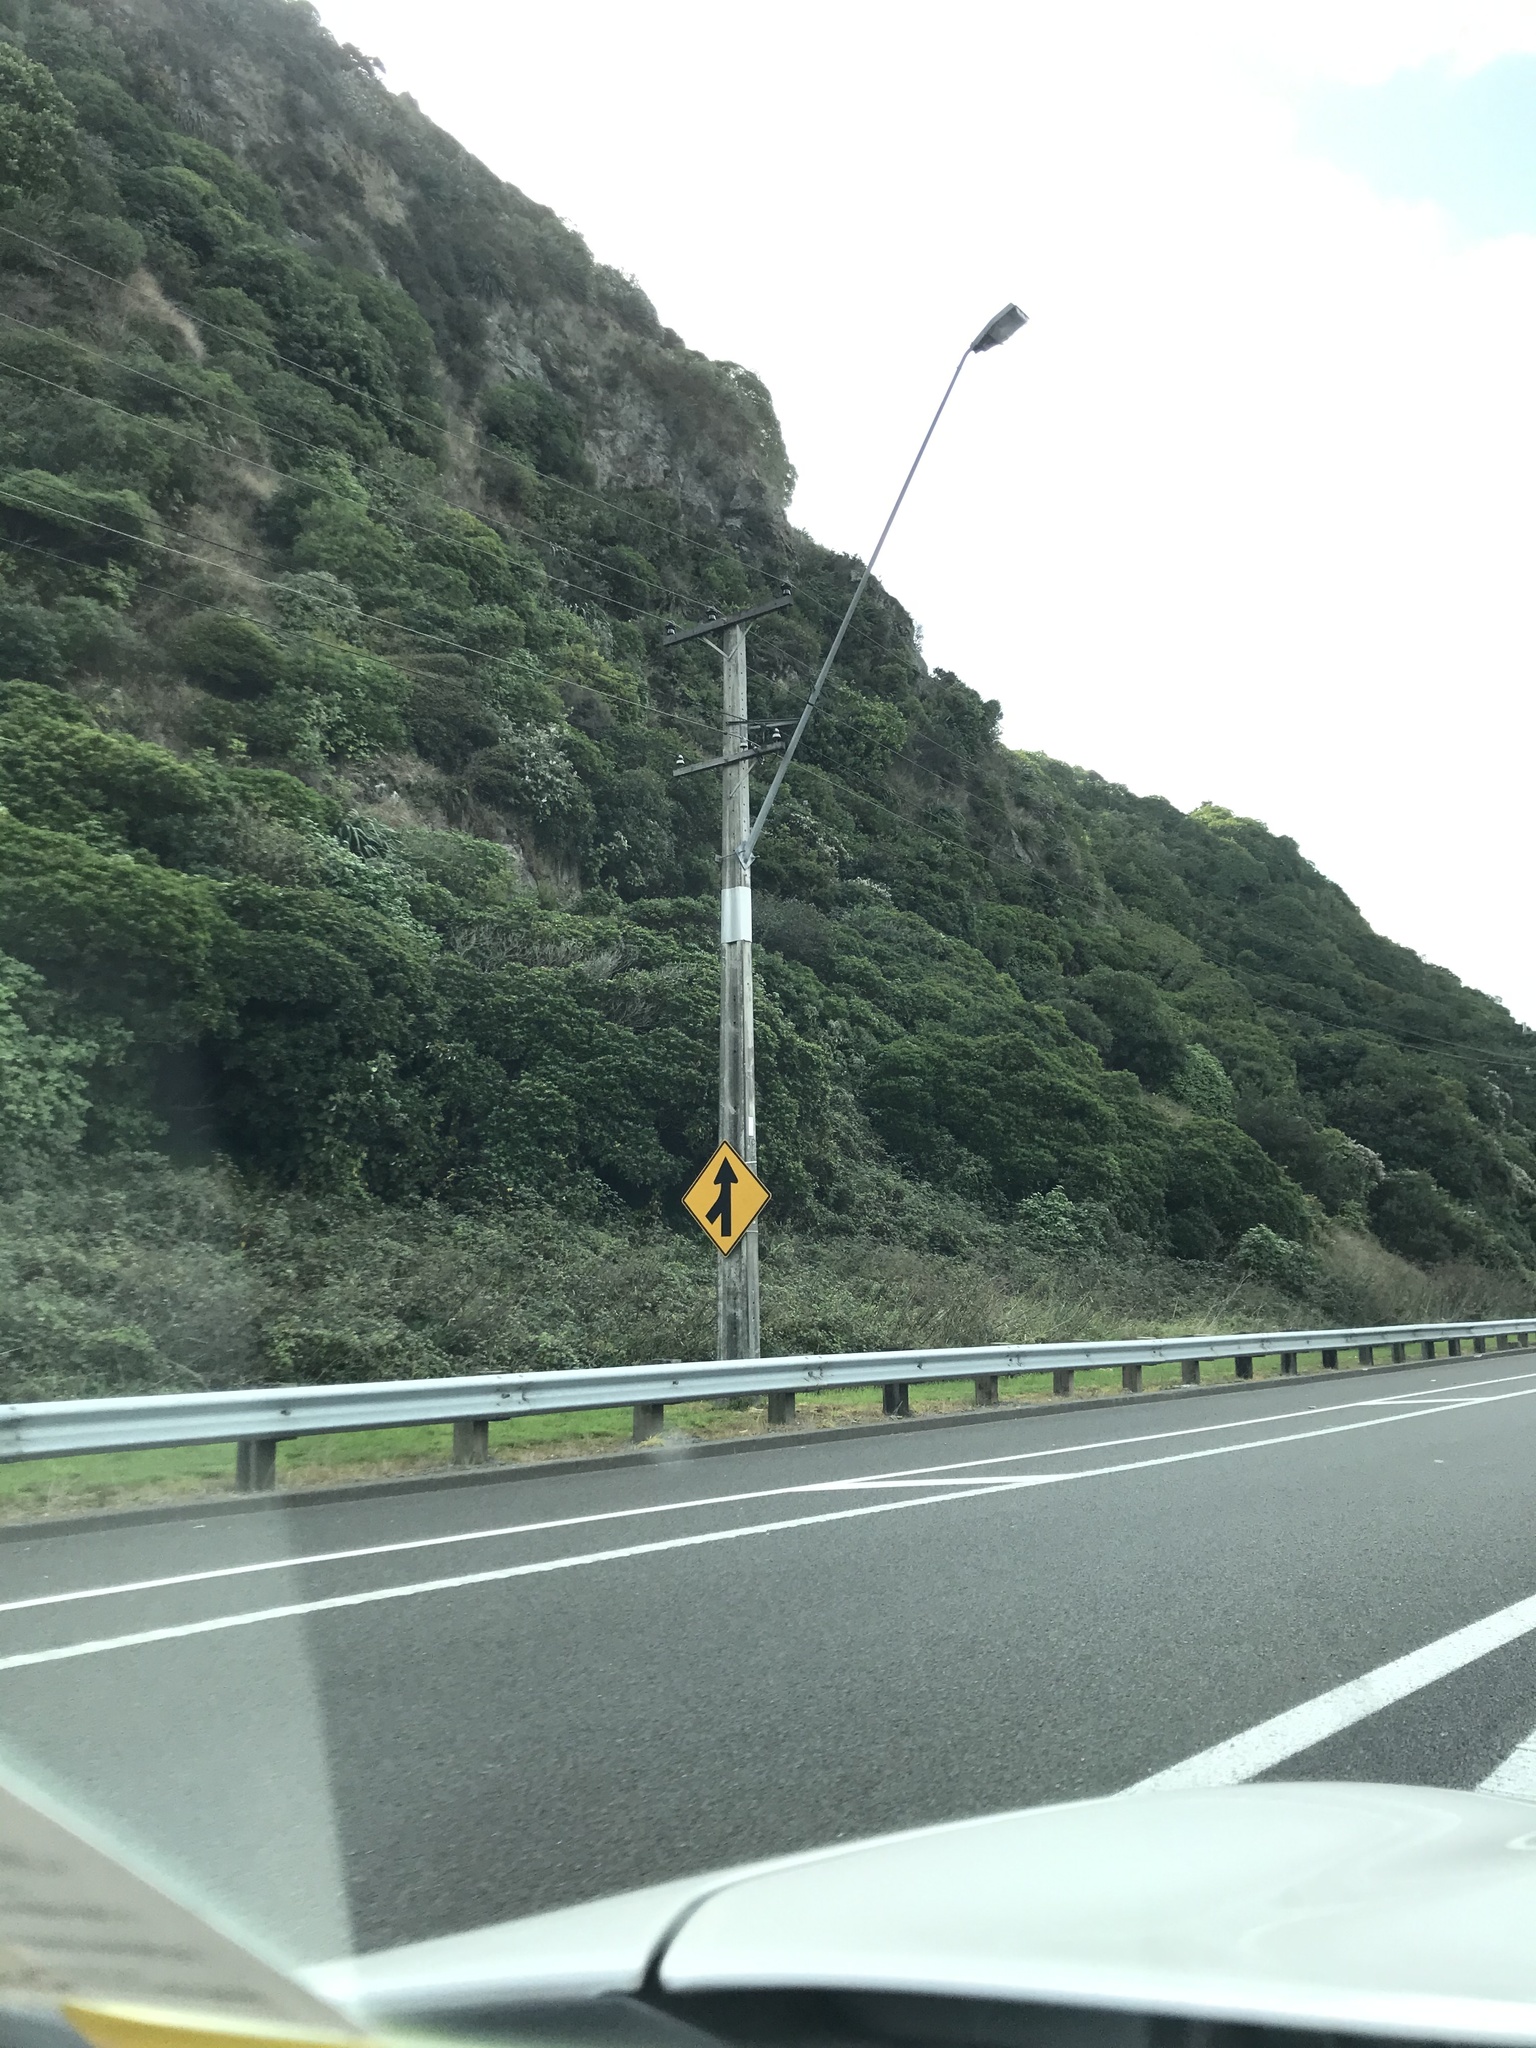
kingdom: Plantae
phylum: Tracheophyta
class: Magnoliopsida
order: Apiales
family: Apiaceae
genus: Foeniculum
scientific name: Foeniculum vulgare
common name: Fennel
